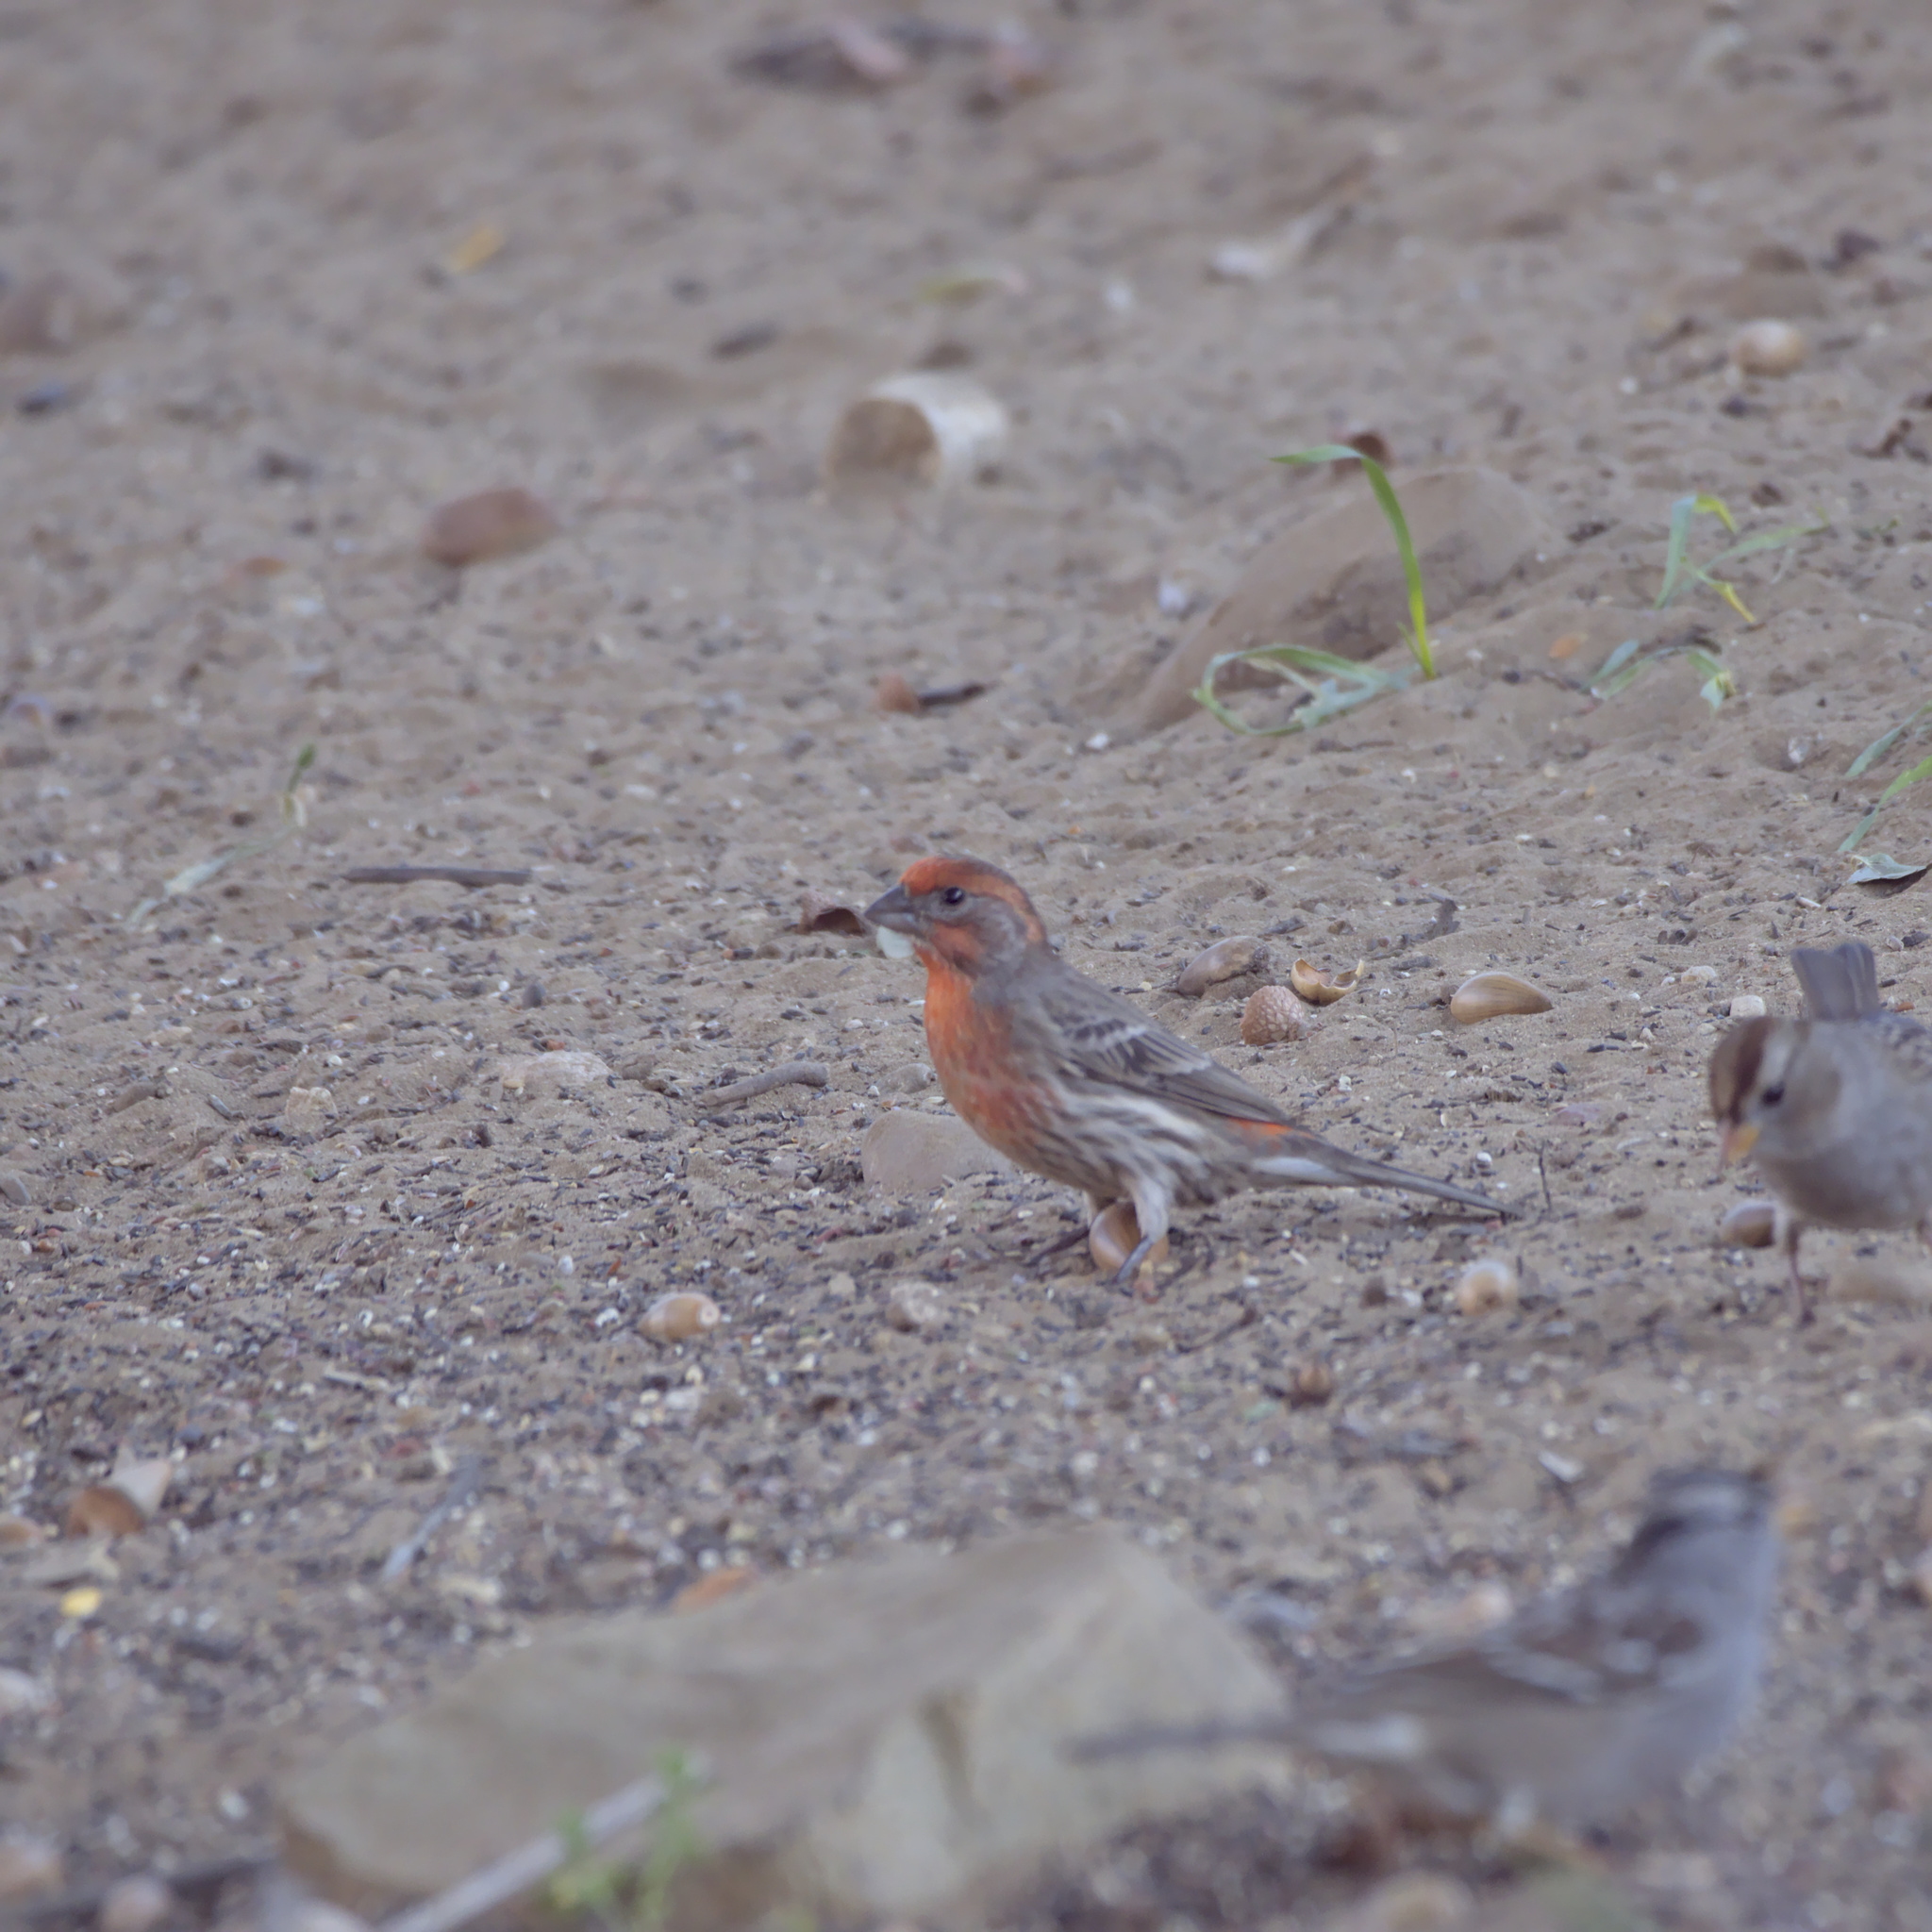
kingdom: Animalia
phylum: Chordata
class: Aves
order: Passeriformes
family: Fringillidae
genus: Haemorhous
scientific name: Haemorhous mexicanus
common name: House finch
